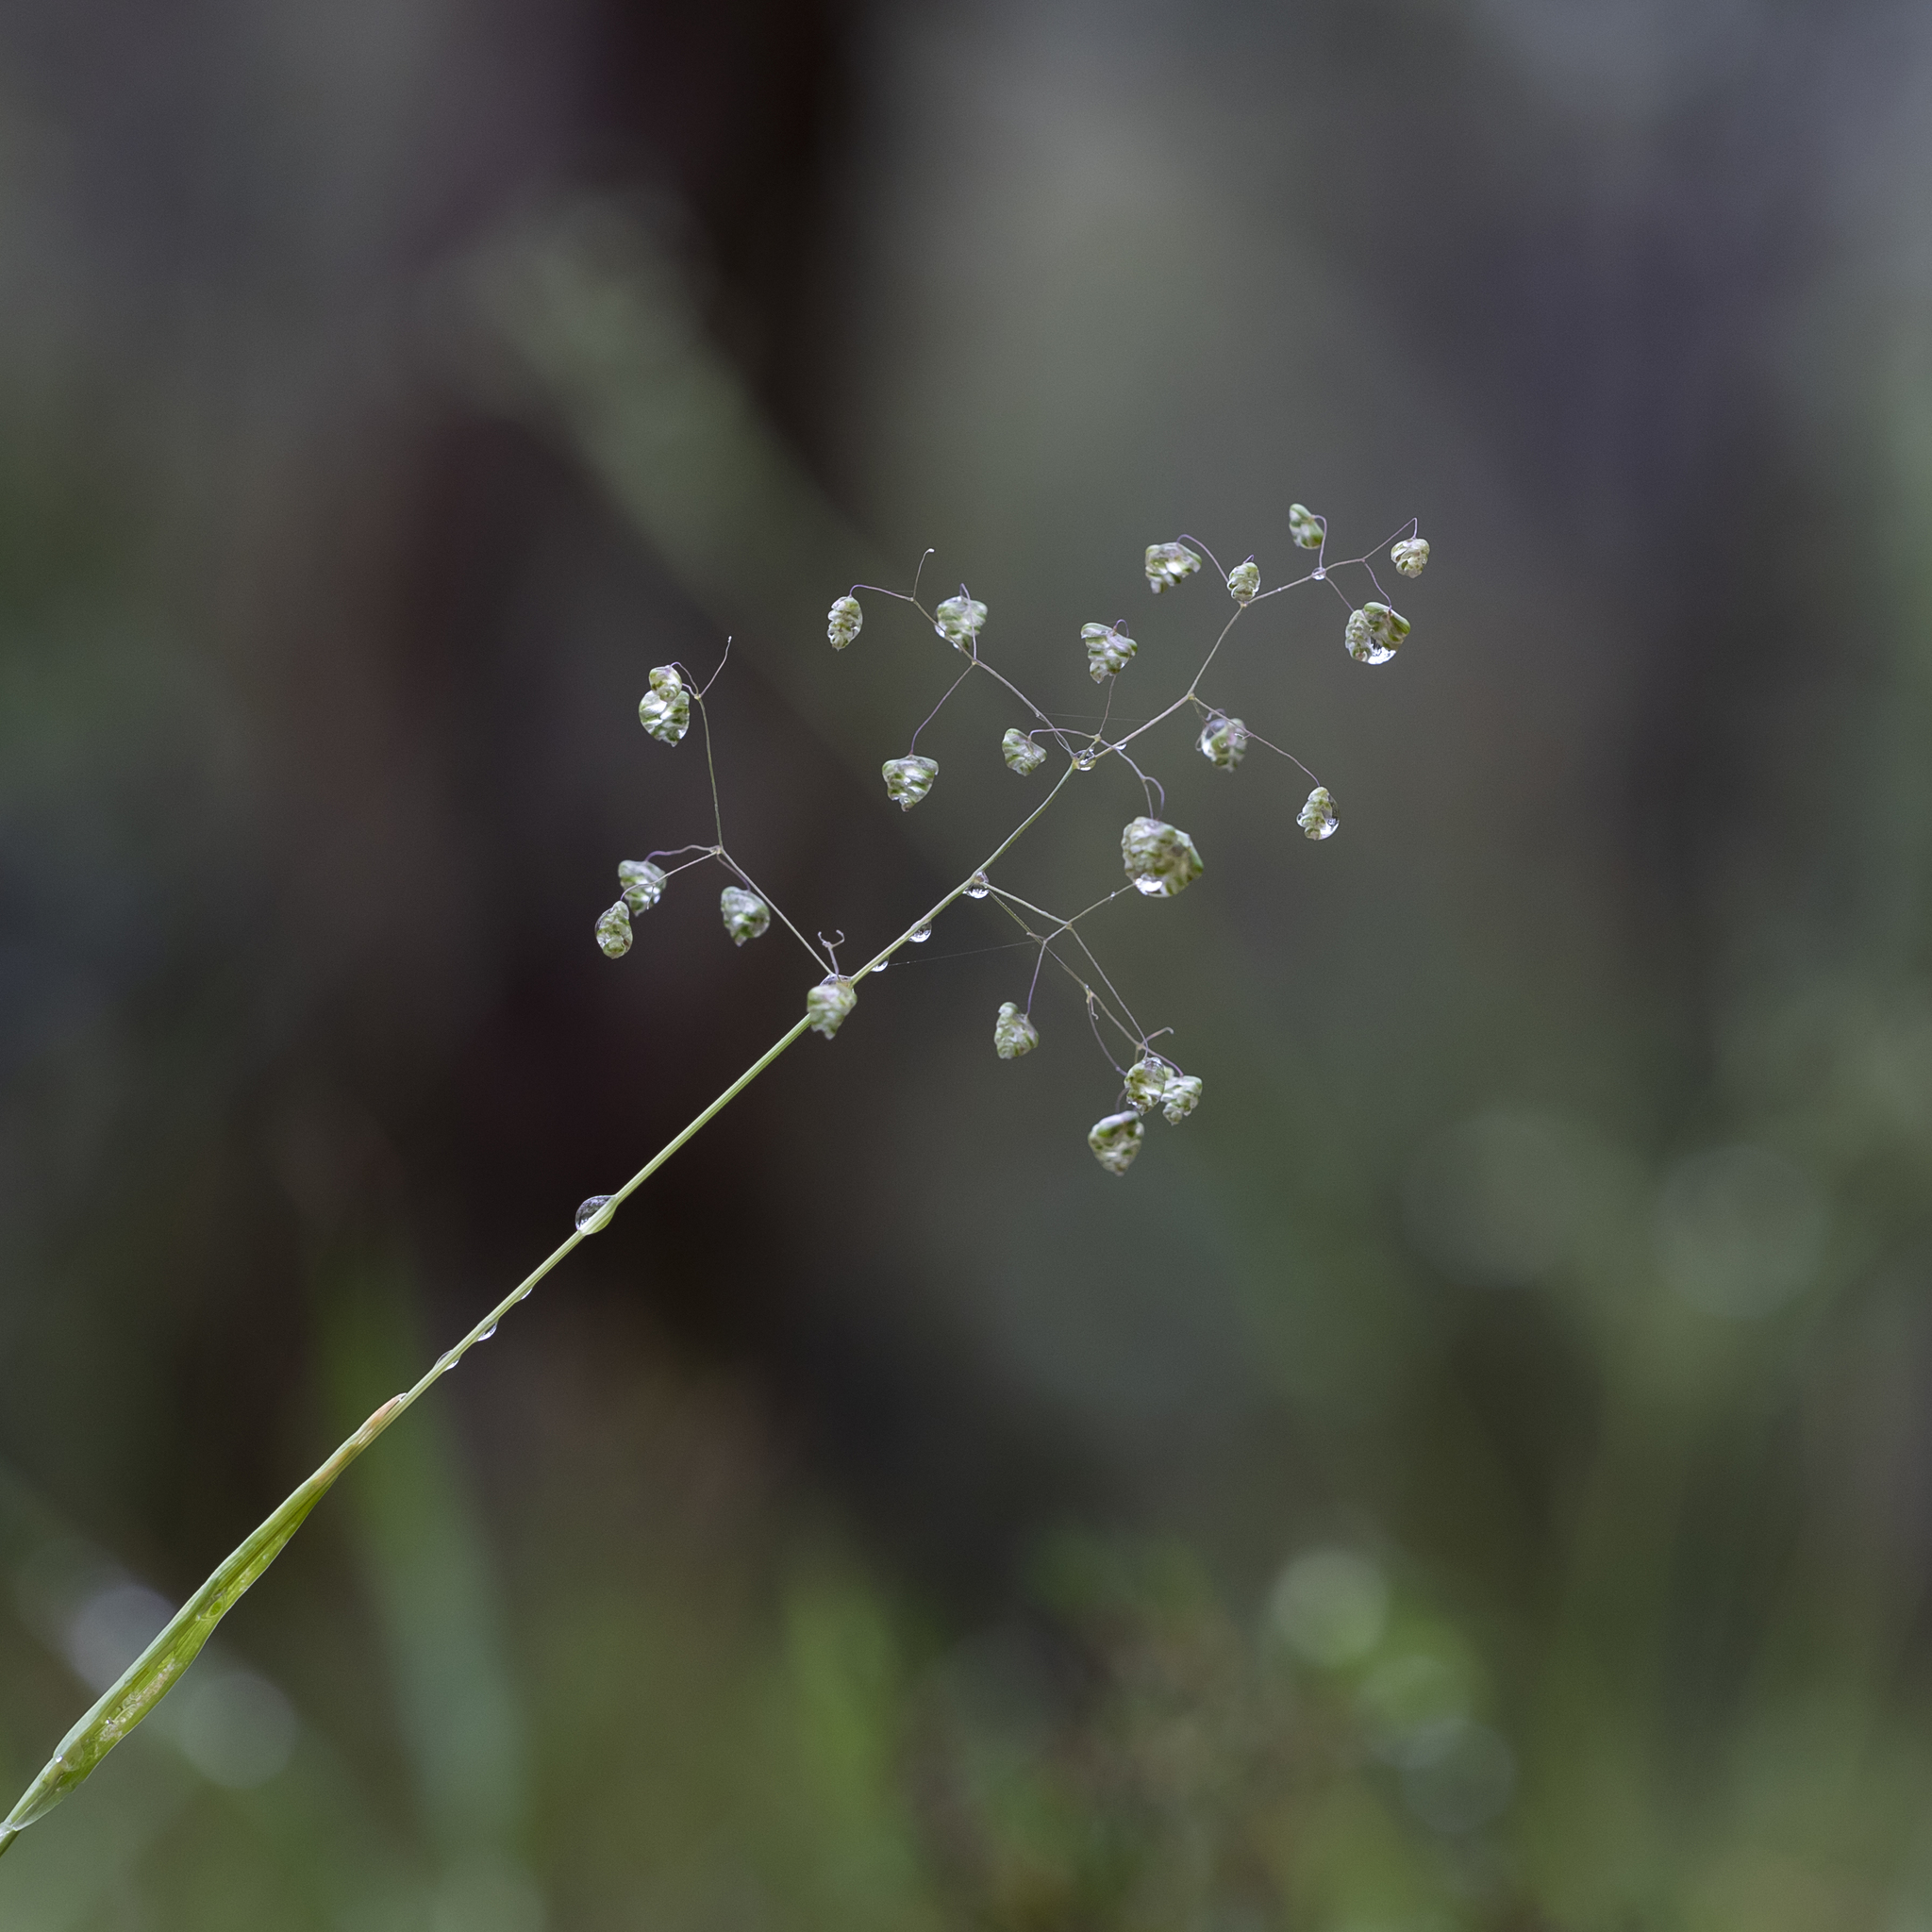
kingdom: Plantae
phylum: Tracheophyta
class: Liliopsida
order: Poales
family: Poaceae
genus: Briza
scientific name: Briza minor
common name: Lesser quaking-grass
